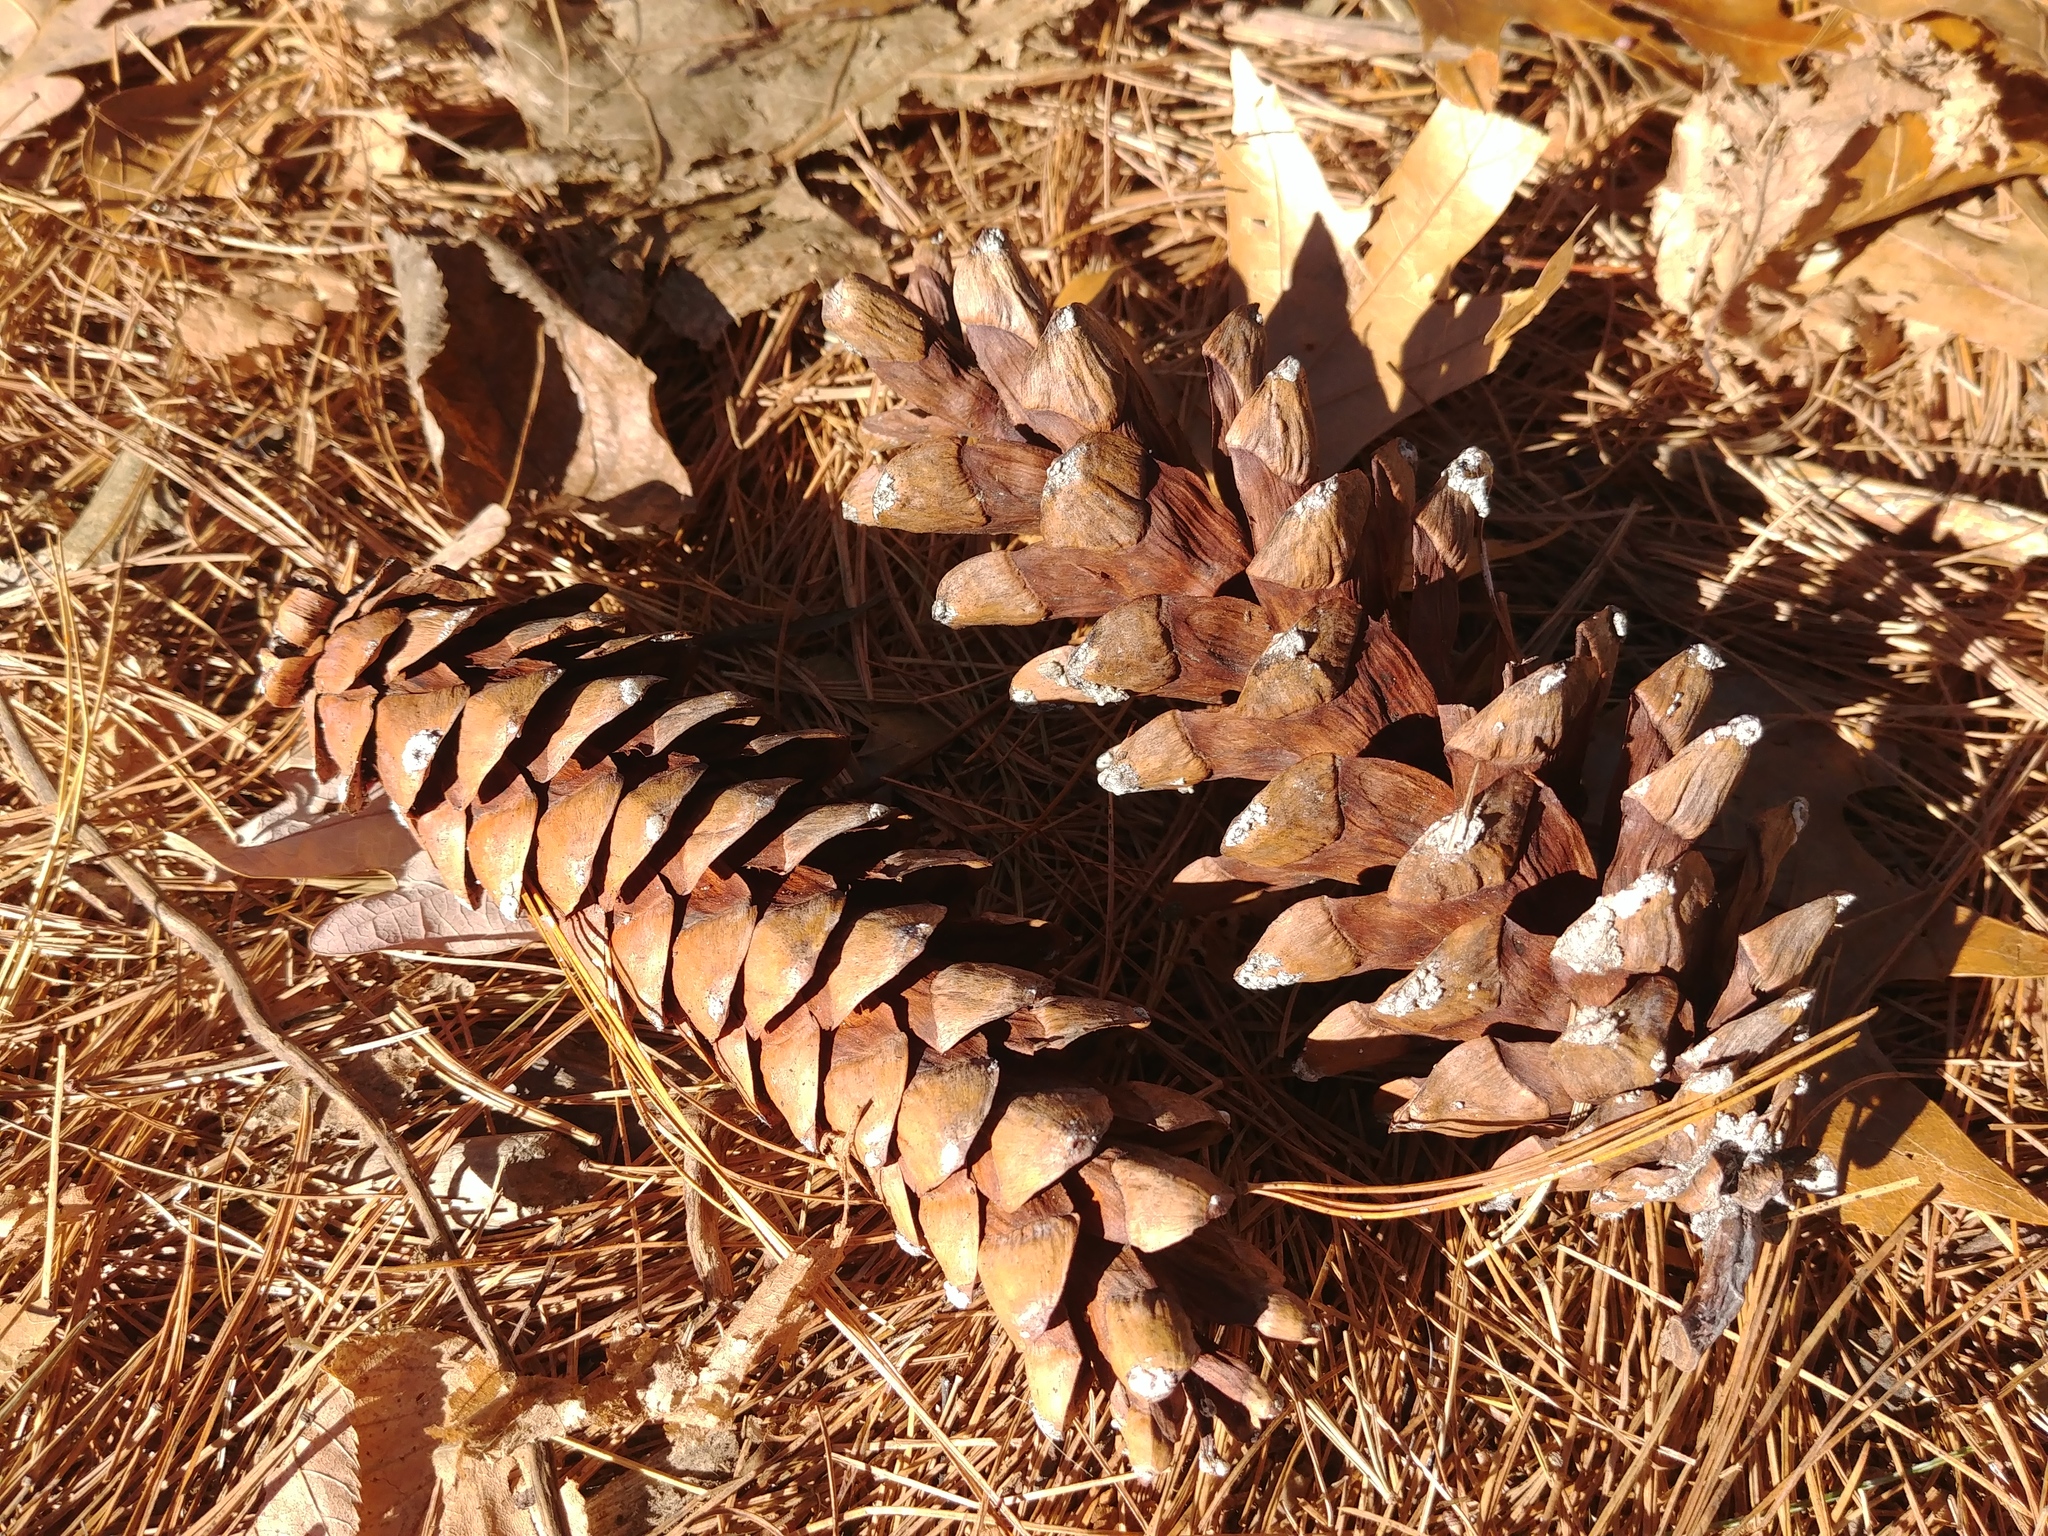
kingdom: Plantae
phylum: Tracheophyta
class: Pinopsida
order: Pinales
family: Pinaceae
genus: Pinus
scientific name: Pinus strobus
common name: Weymouth pine
